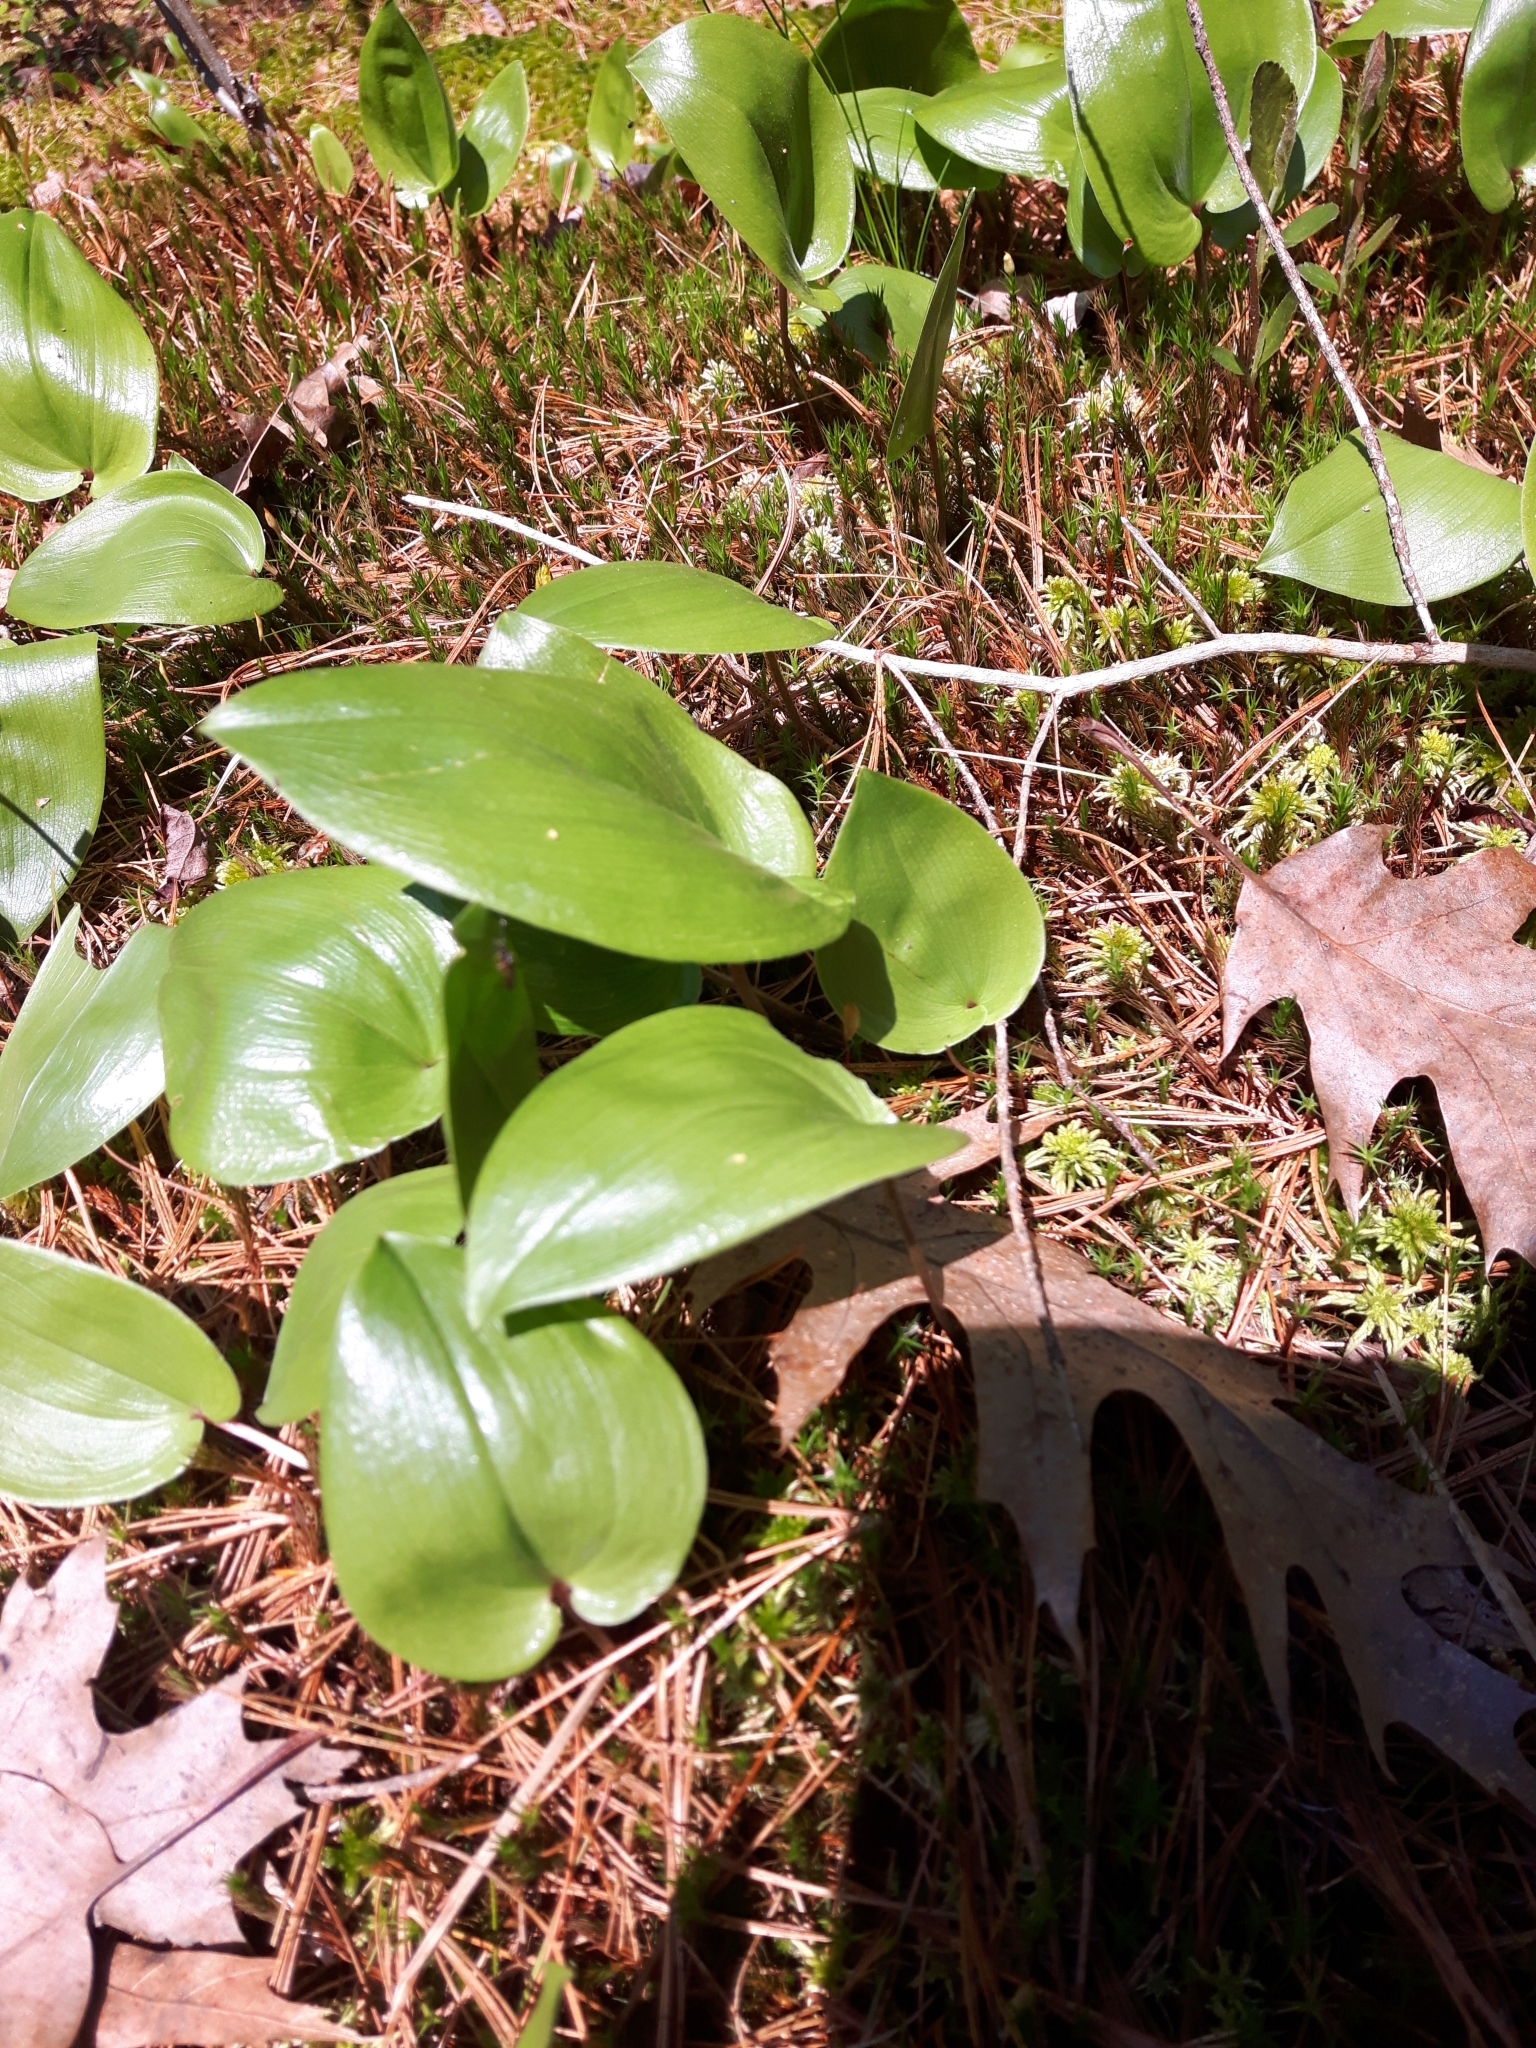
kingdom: Plantae
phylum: Tracheophyta
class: Liliopsida
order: Asparagales
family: Asparagaceae
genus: Maianthemum
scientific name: Maianthemum canadense
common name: False lily-of-the-valley
